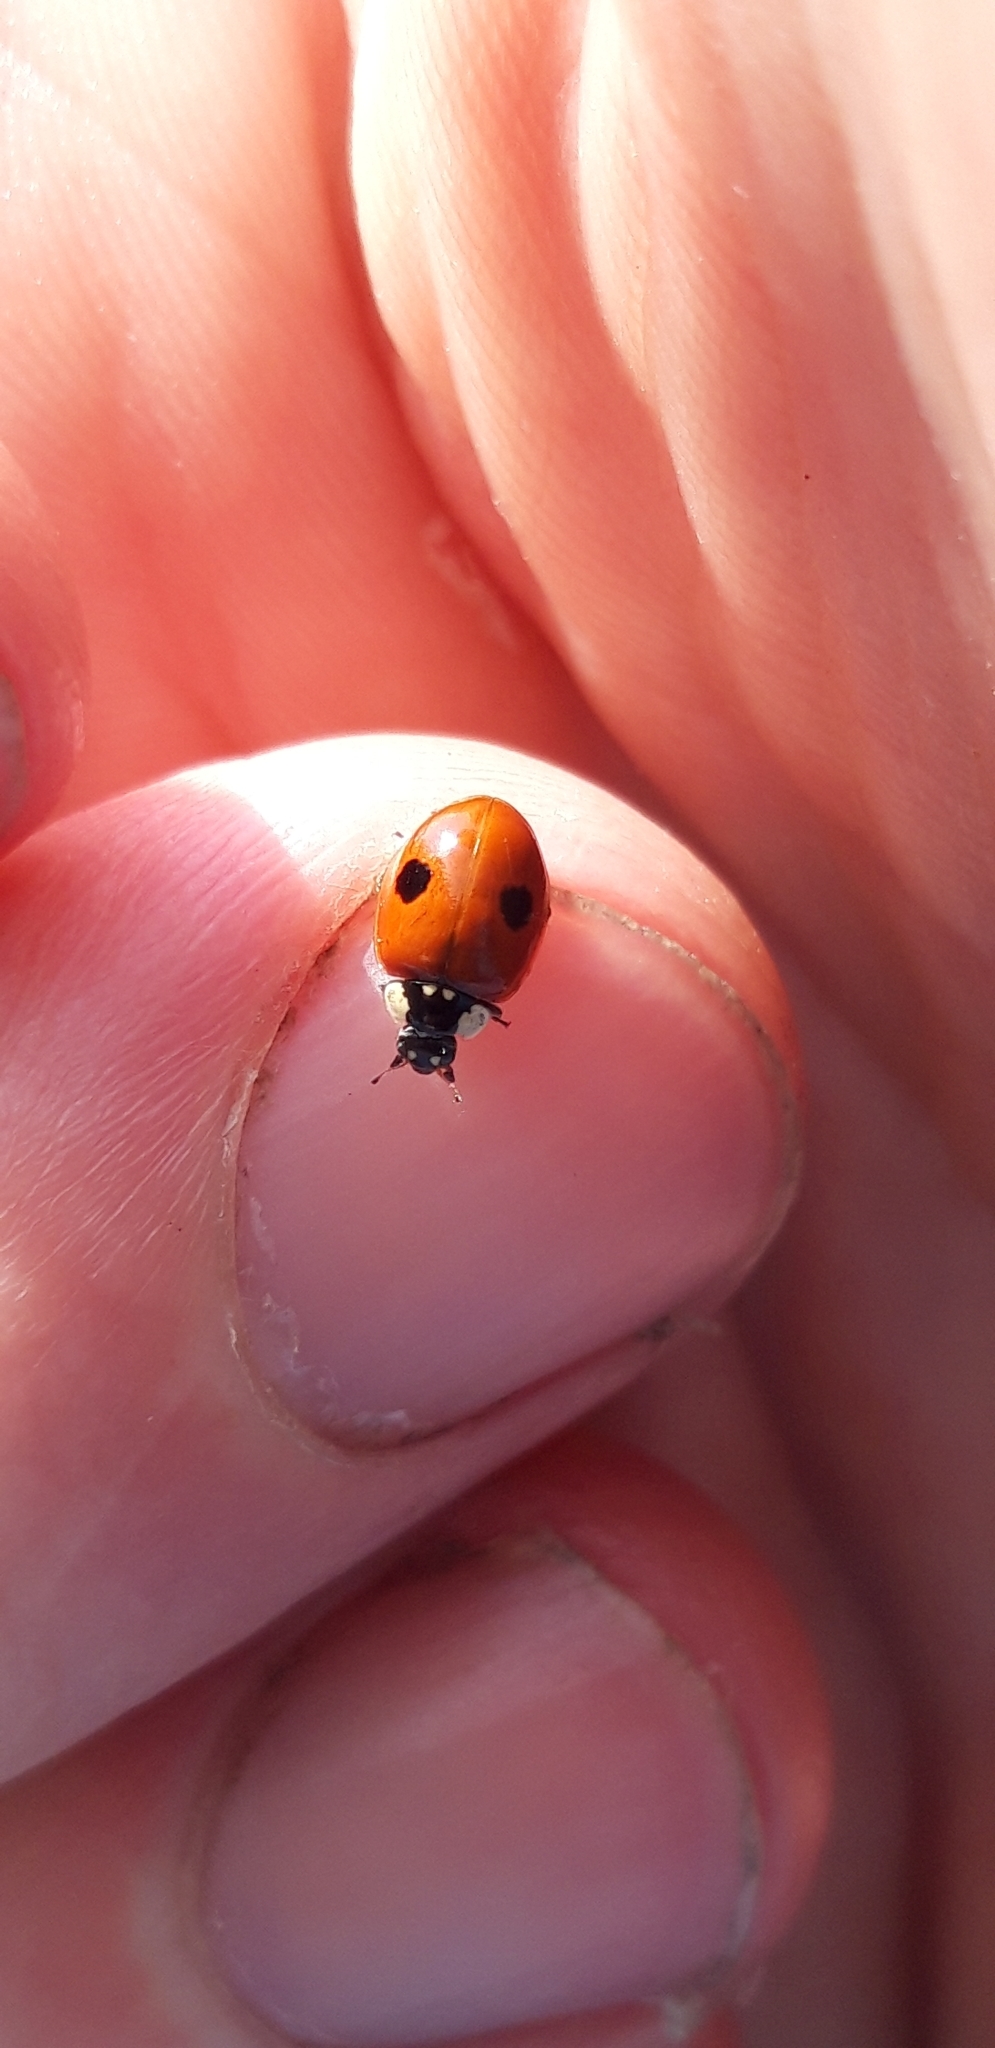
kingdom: Animalia
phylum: Arthropoda
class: Insecta
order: Coleoptera
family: Coccinellidae
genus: Adalia
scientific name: Adalia bipunctata
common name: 2-spot ladybird
